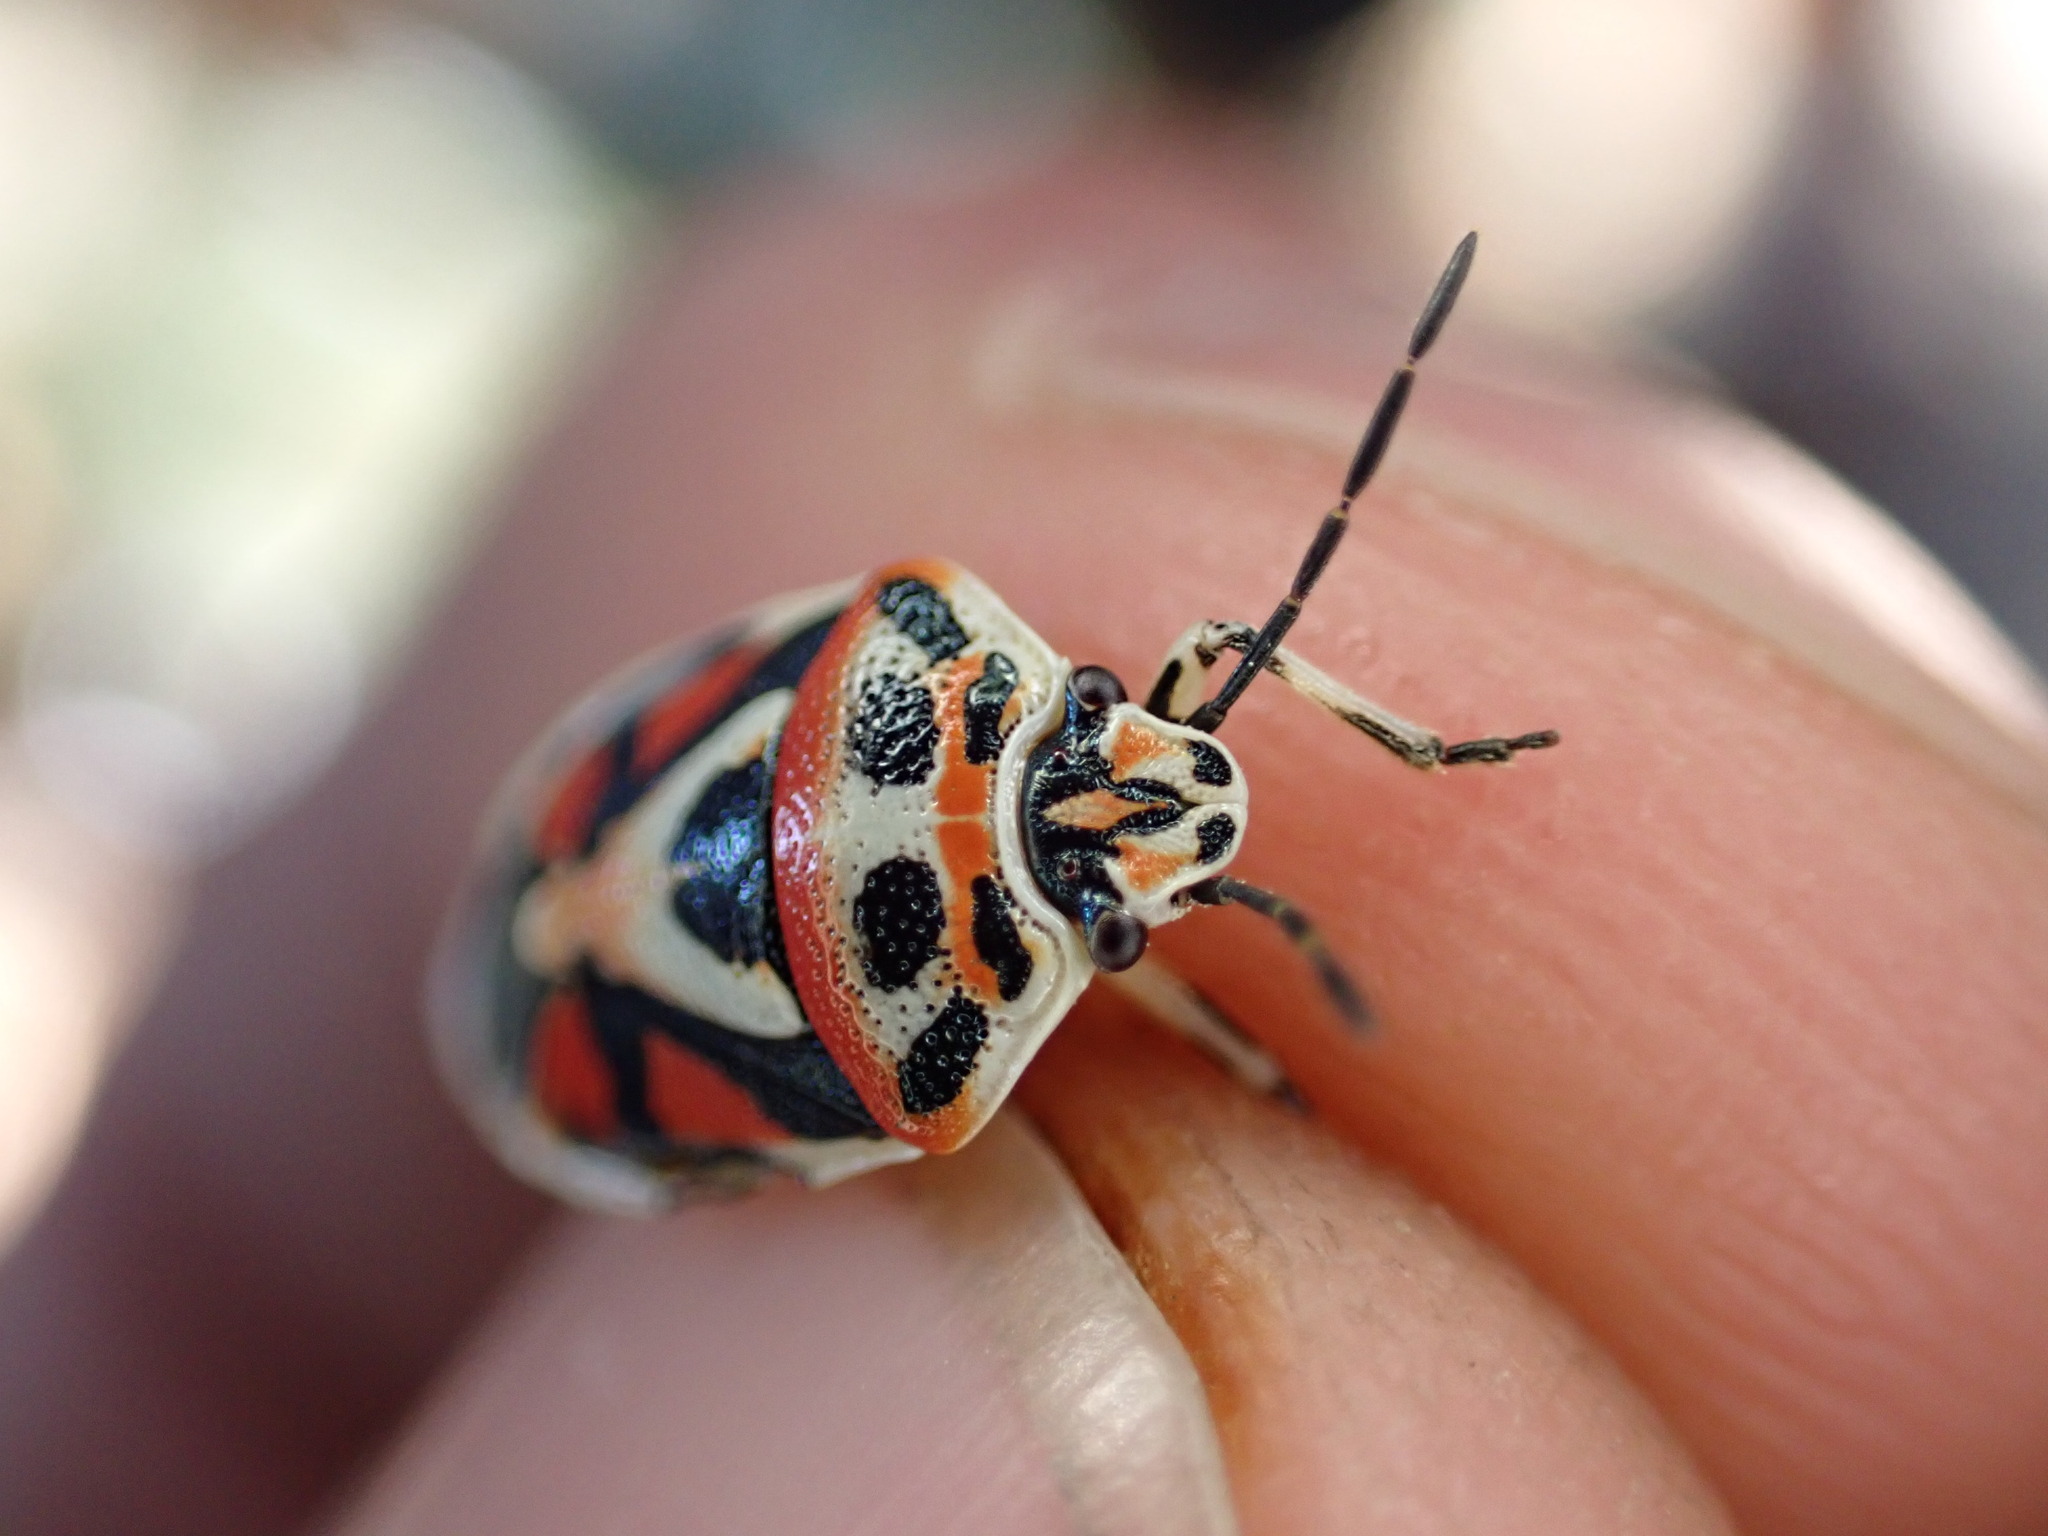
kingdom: Animalia
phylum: Arthropoda
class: Insecta
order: Hemiptera
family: Pentatomidae
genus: Eurydema
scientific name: Eurydema ornata
